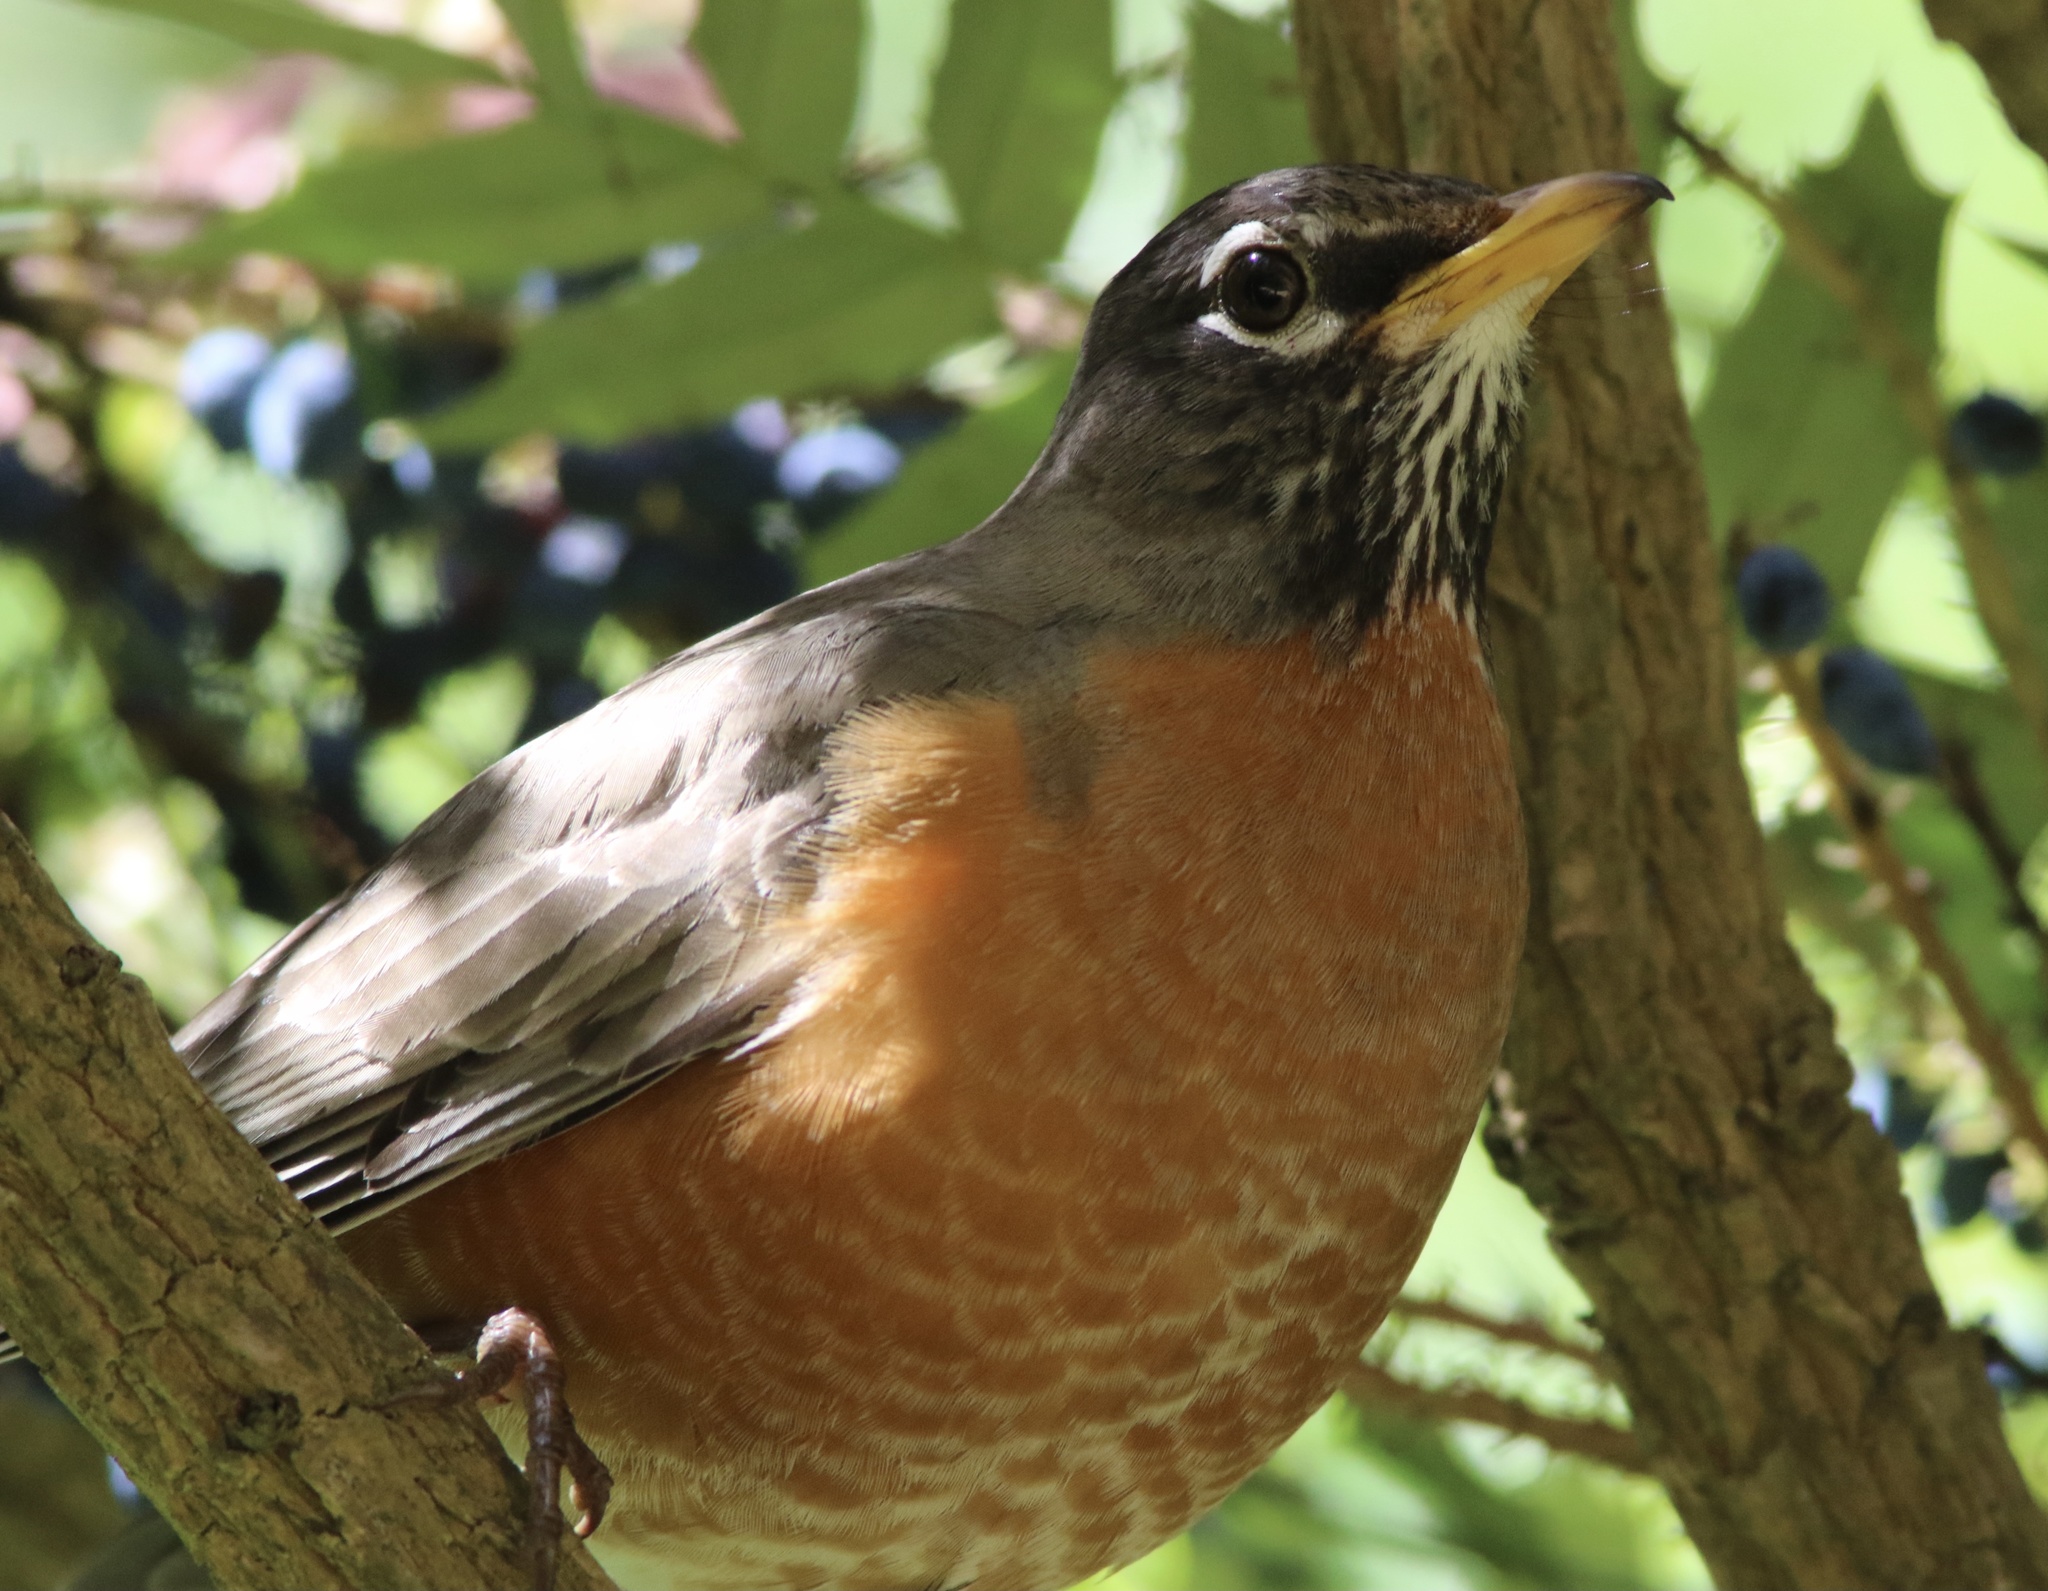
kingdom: Animalia
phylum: Chordata
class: Aves
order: Passeriformes
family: Turdidae
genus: Turdus
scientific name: Turdus migratorius
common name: American robin
